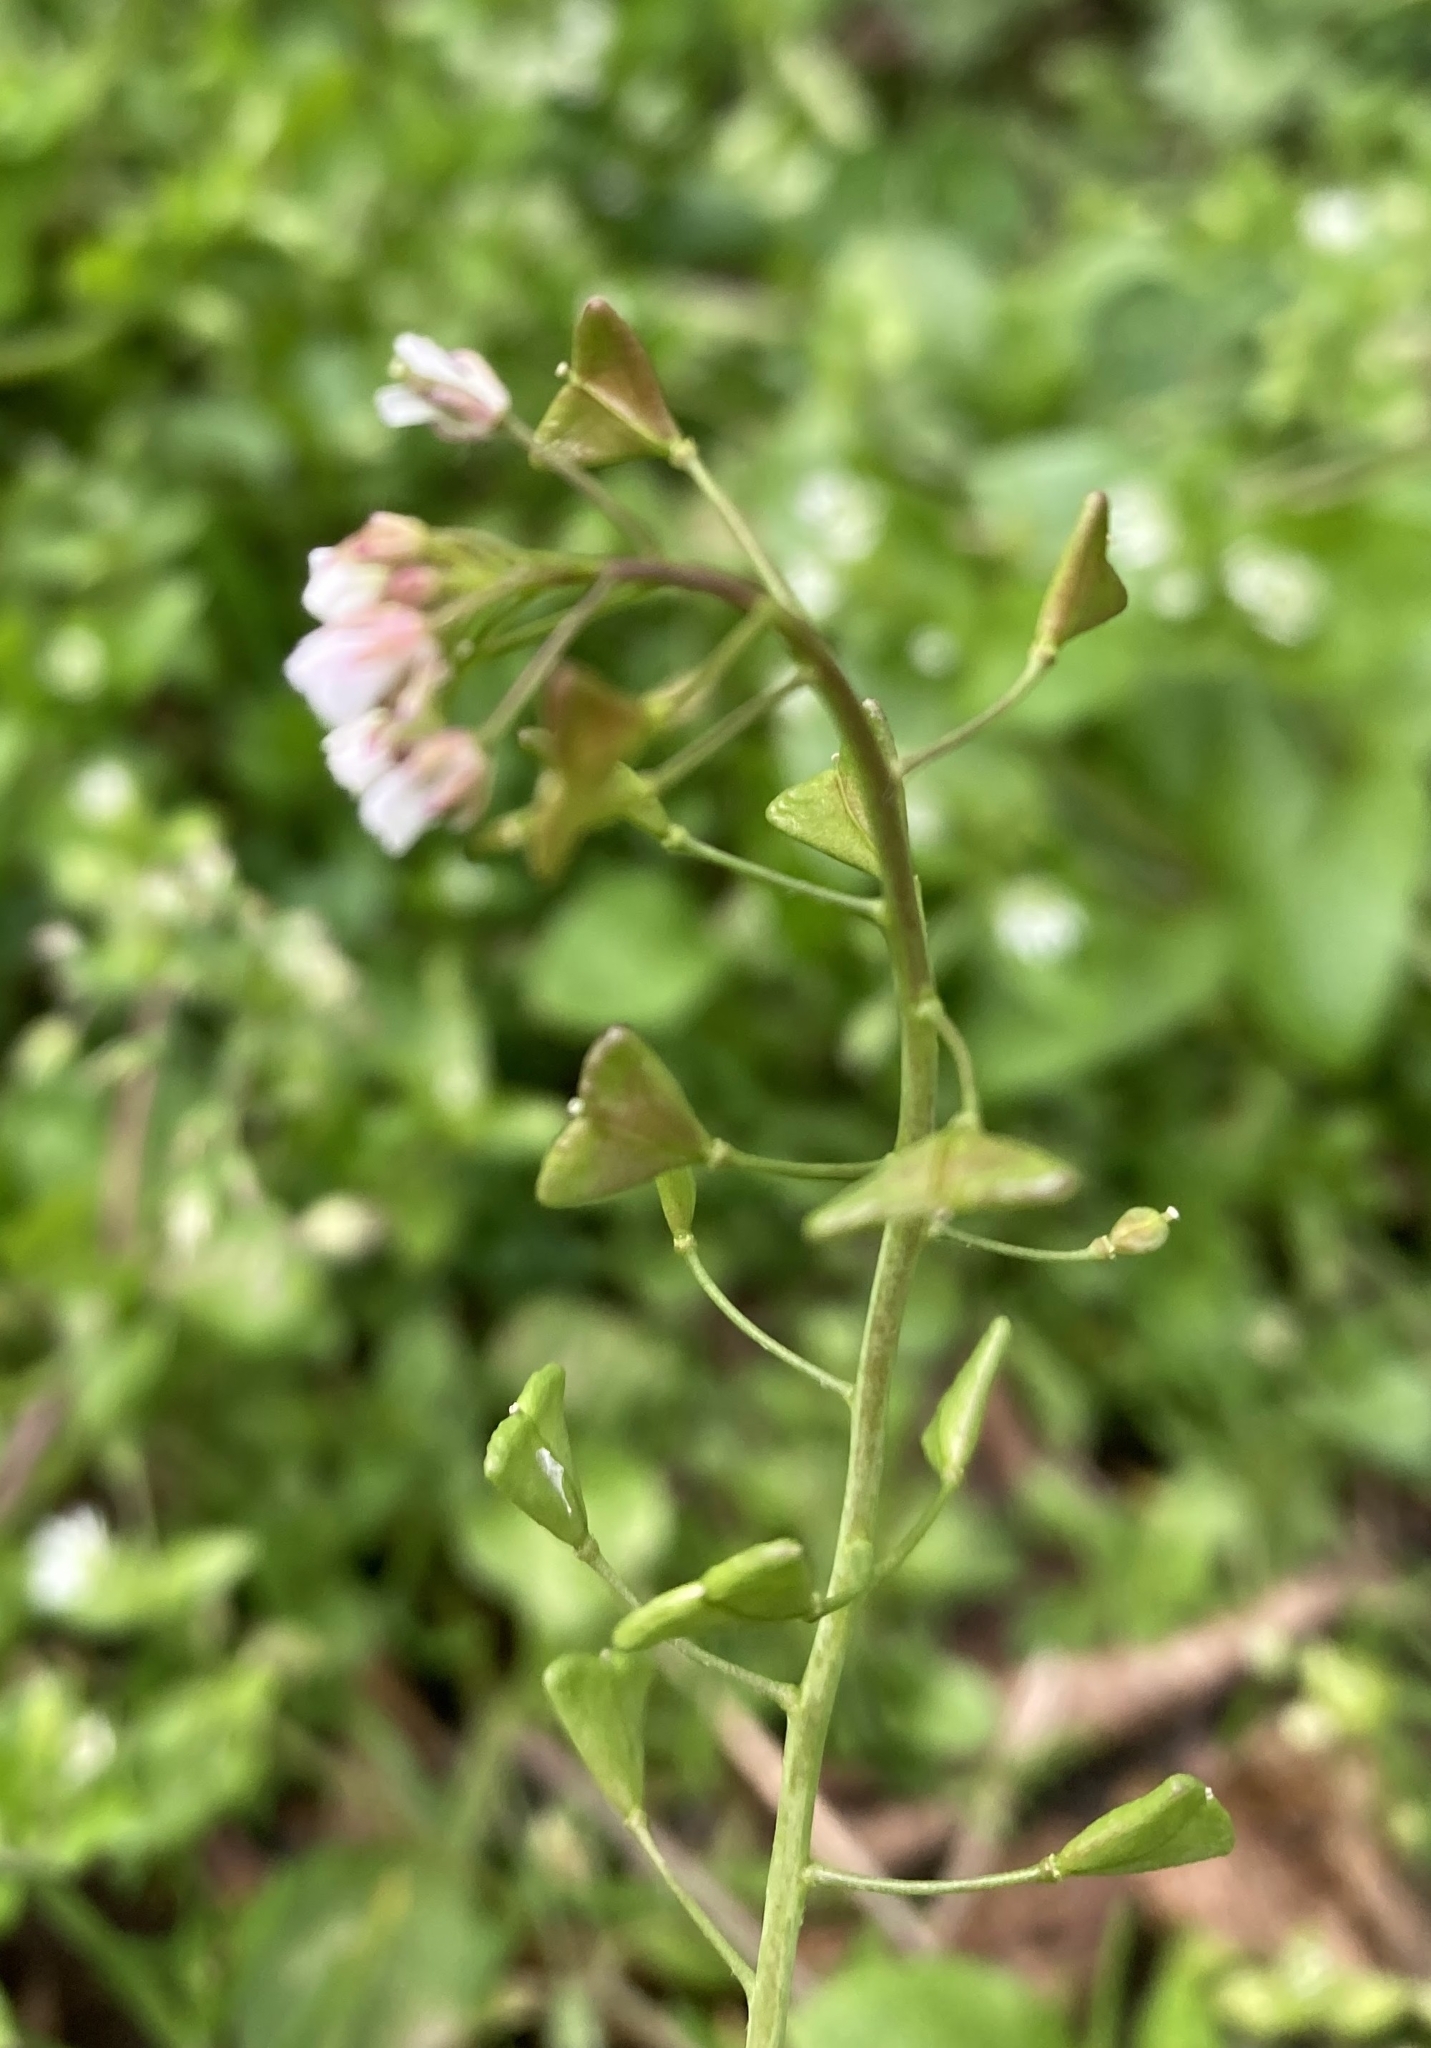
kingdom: Plantae
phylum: Tracheophyta
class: Magnoliopsida
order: Brassicales
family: Brassicaceae
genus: Capsella
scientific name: Capsella bursa-pastoris
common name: Shepherd's purse
